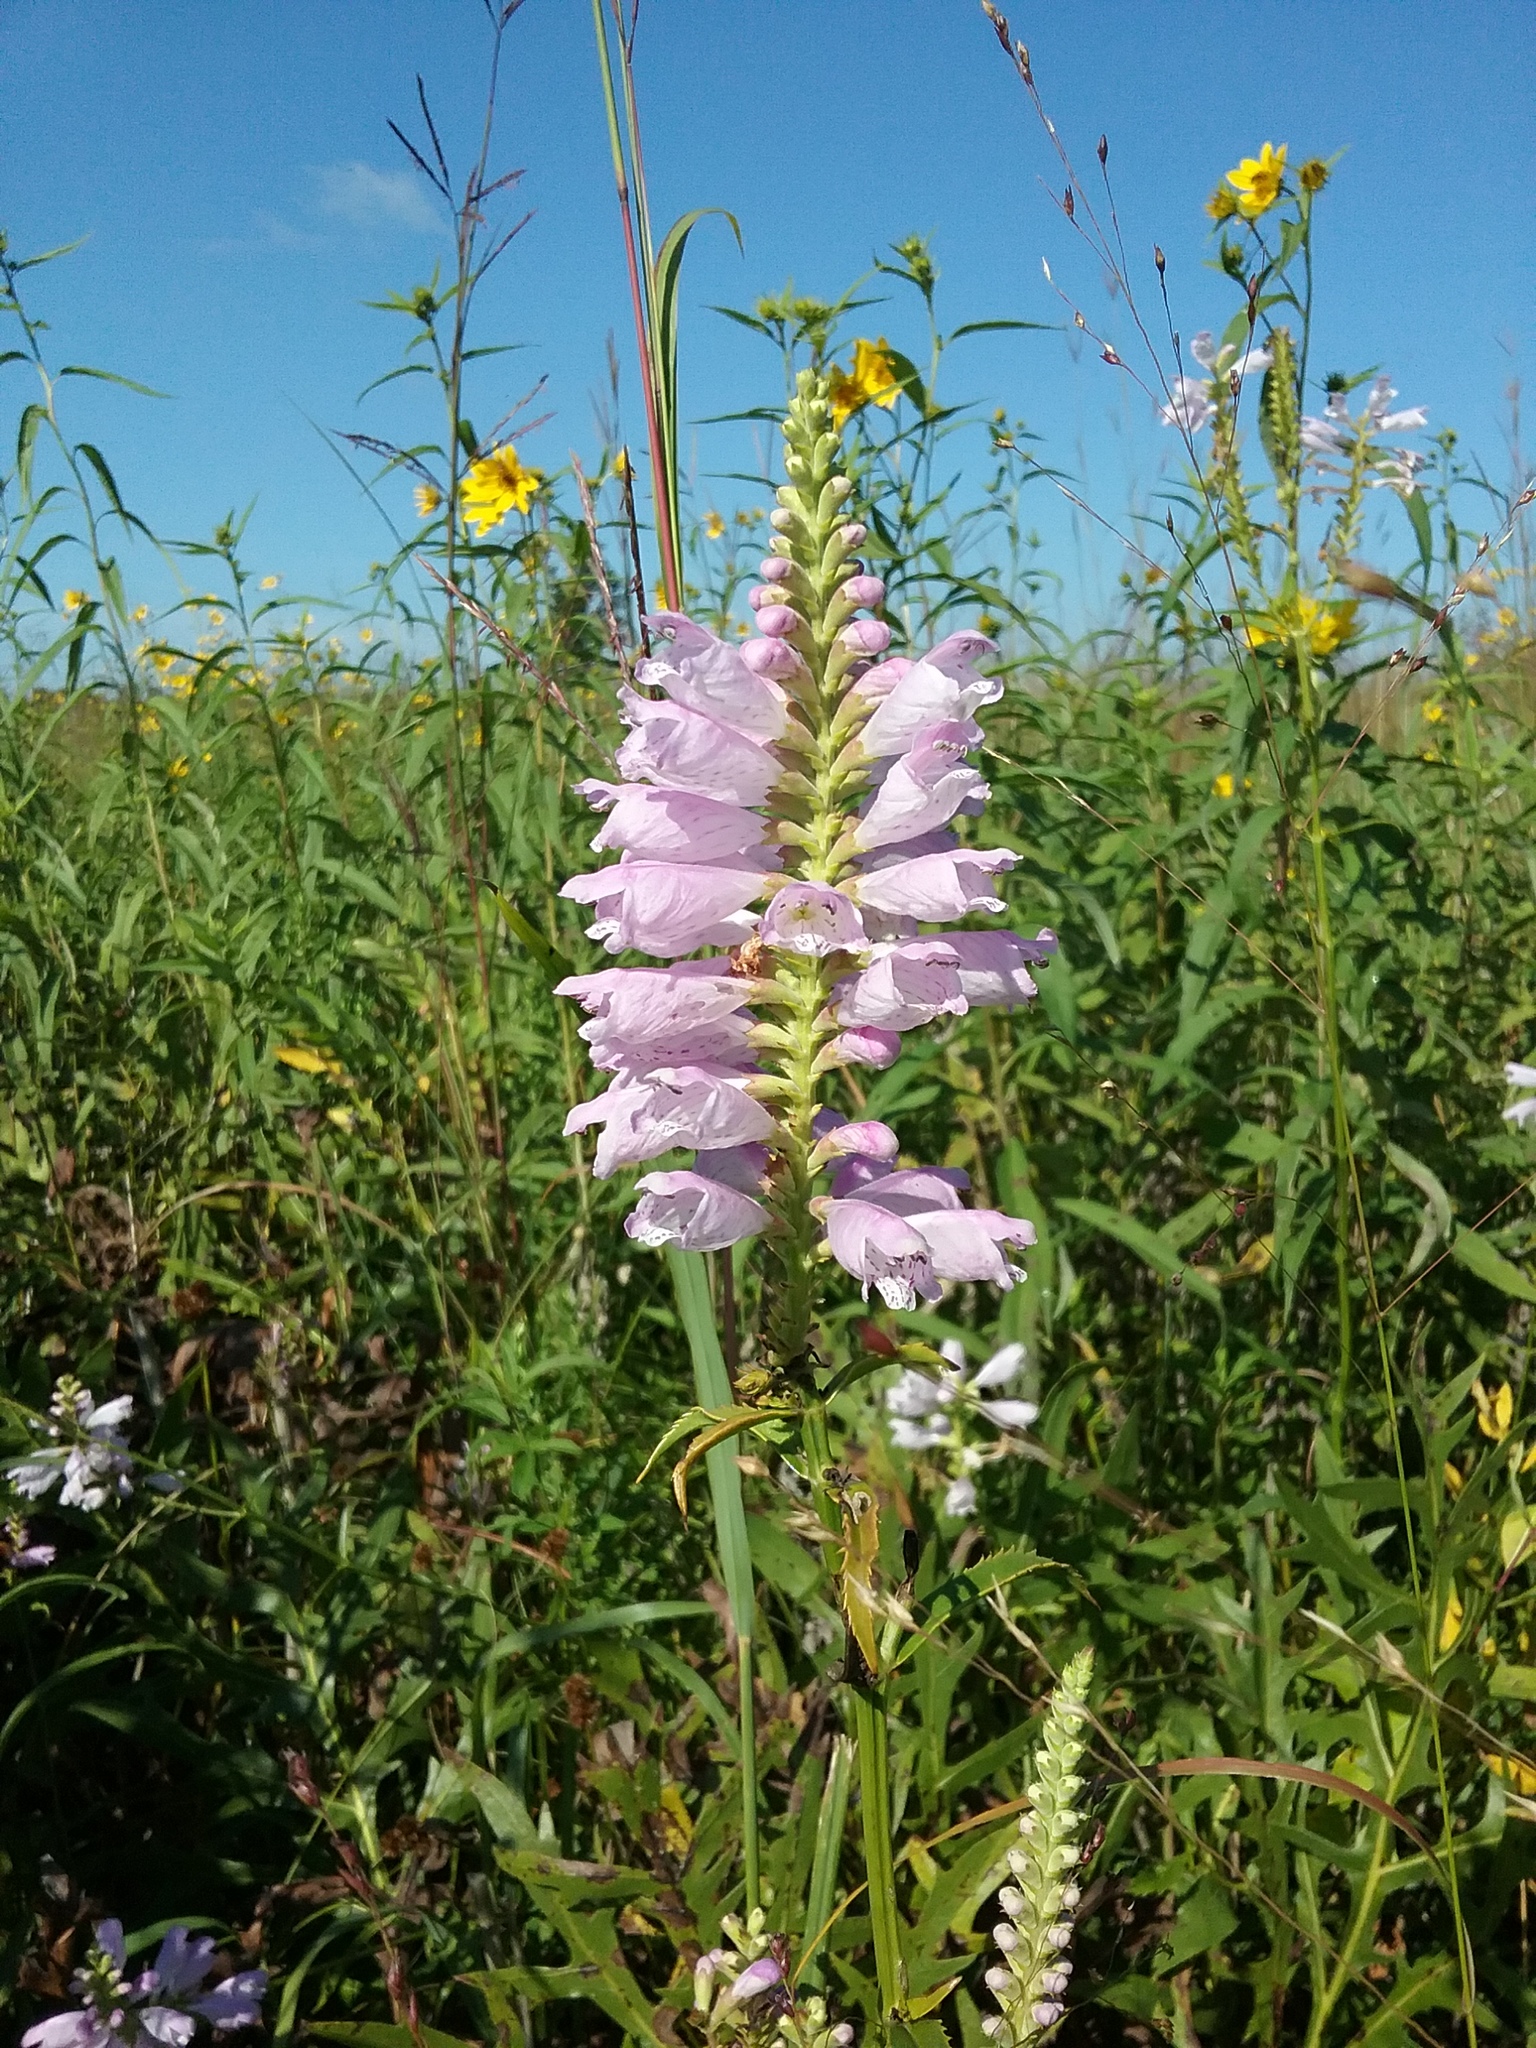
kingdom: Plantae
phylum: Tracheophyta
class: Magnoliopsida
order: Lamiales
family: Lamiaceae
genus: Physostegia
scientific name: Physostegia virginiana
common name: Obedient-plant
